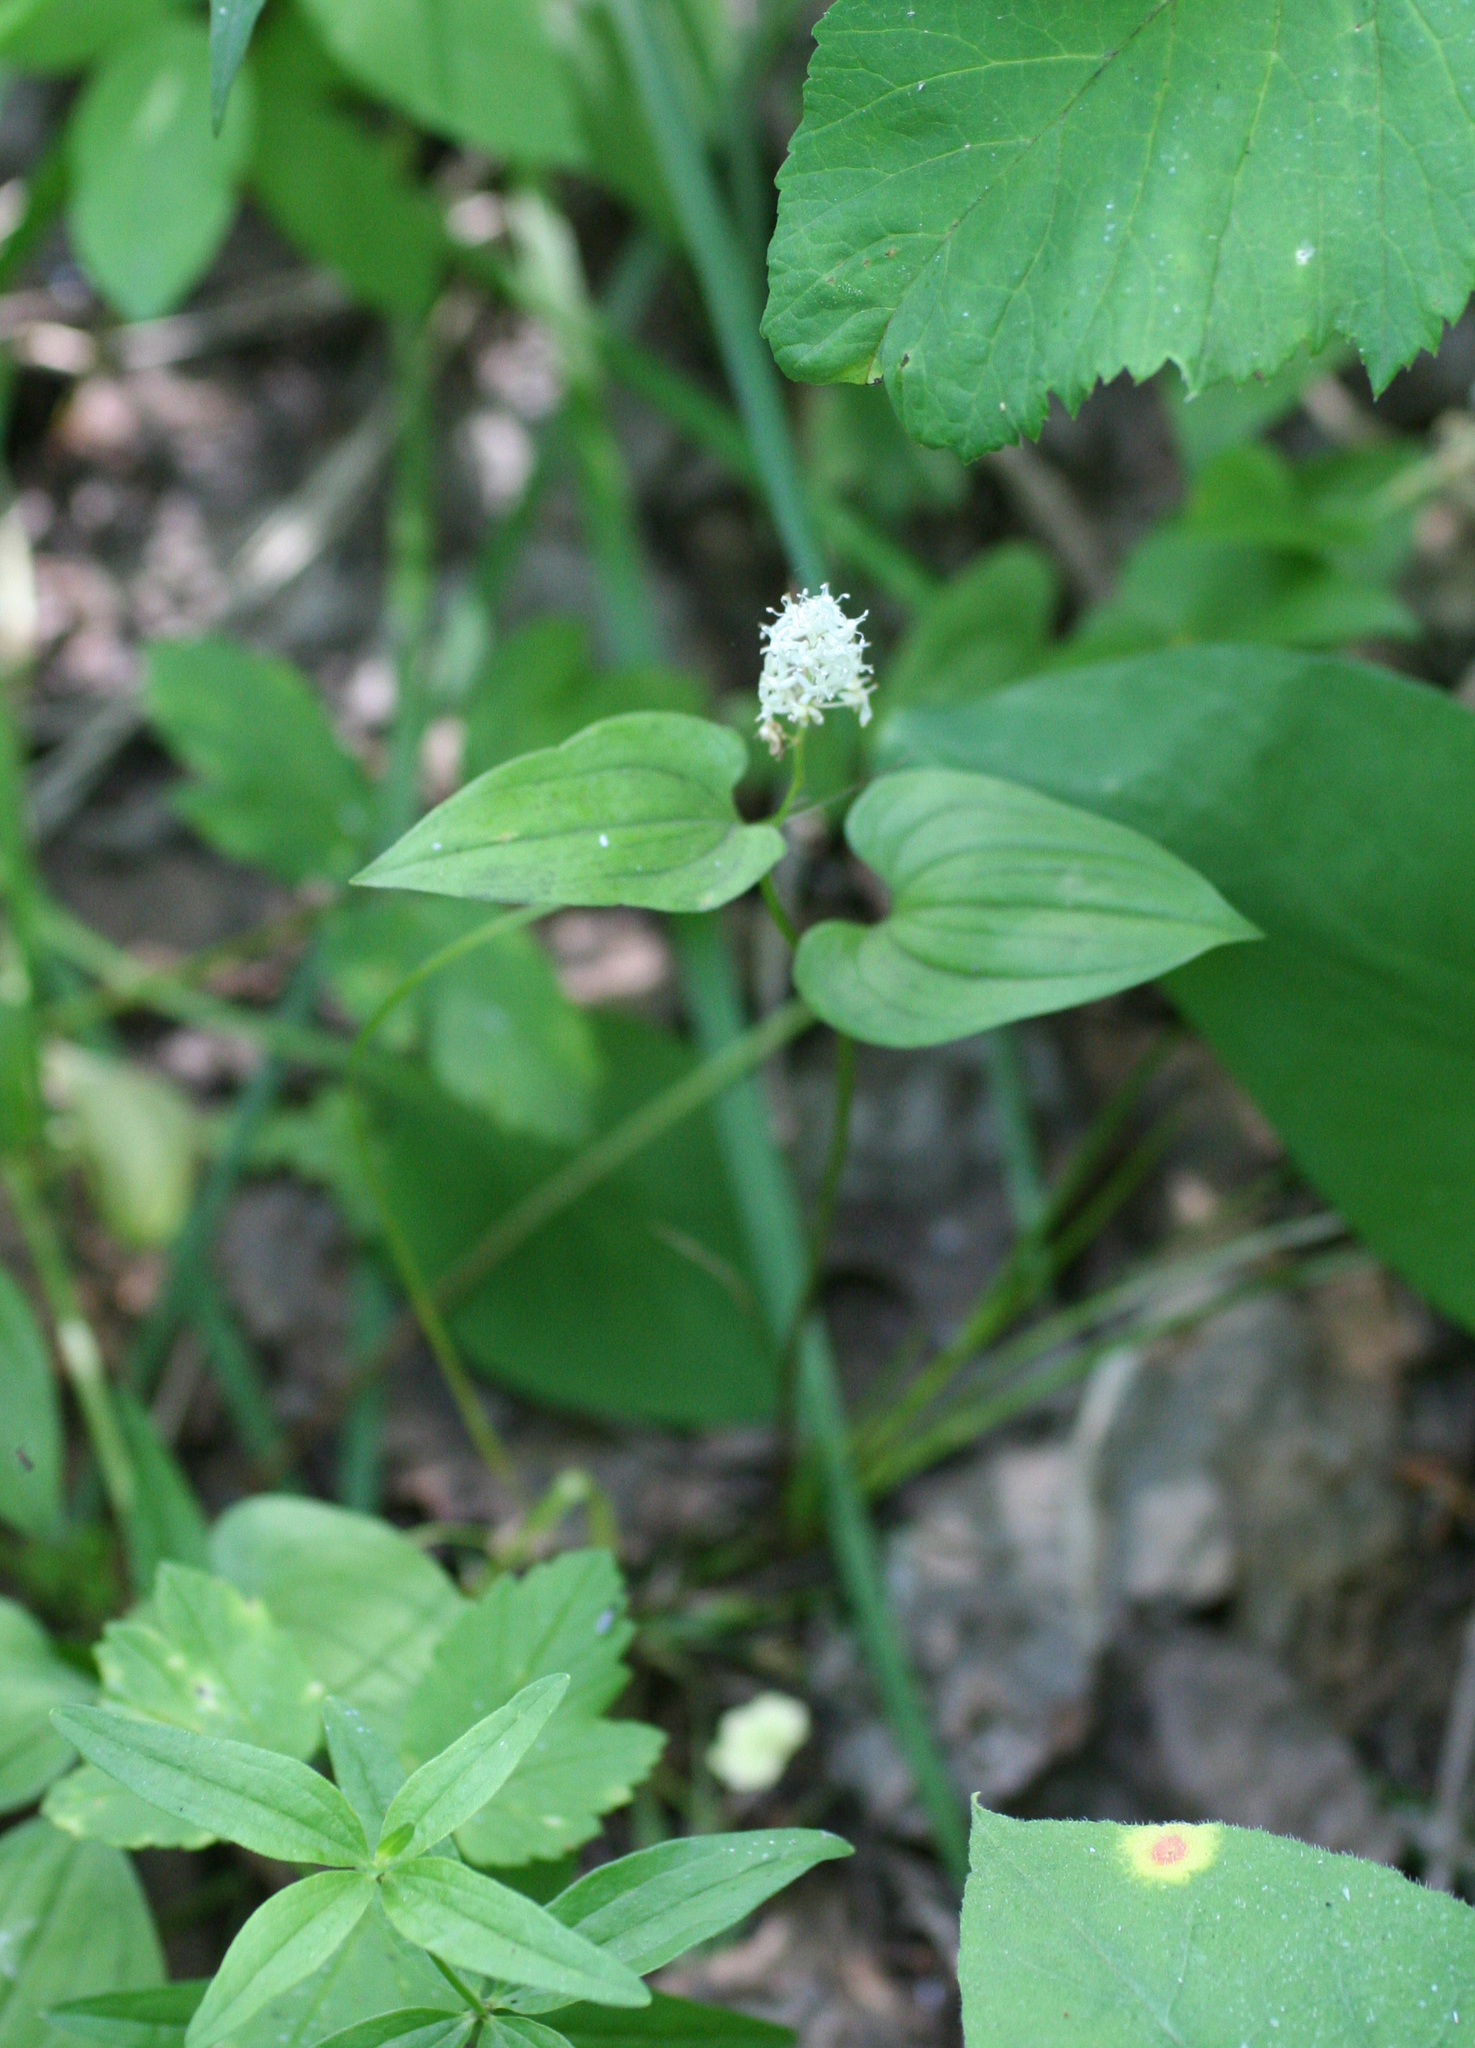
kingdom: Plantae
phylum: Tracheophyta
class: Liliopsida
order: Asparagales
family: Asparagaceae
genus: Maianthemum
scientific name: Maianthemum bifolium
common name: May lily
